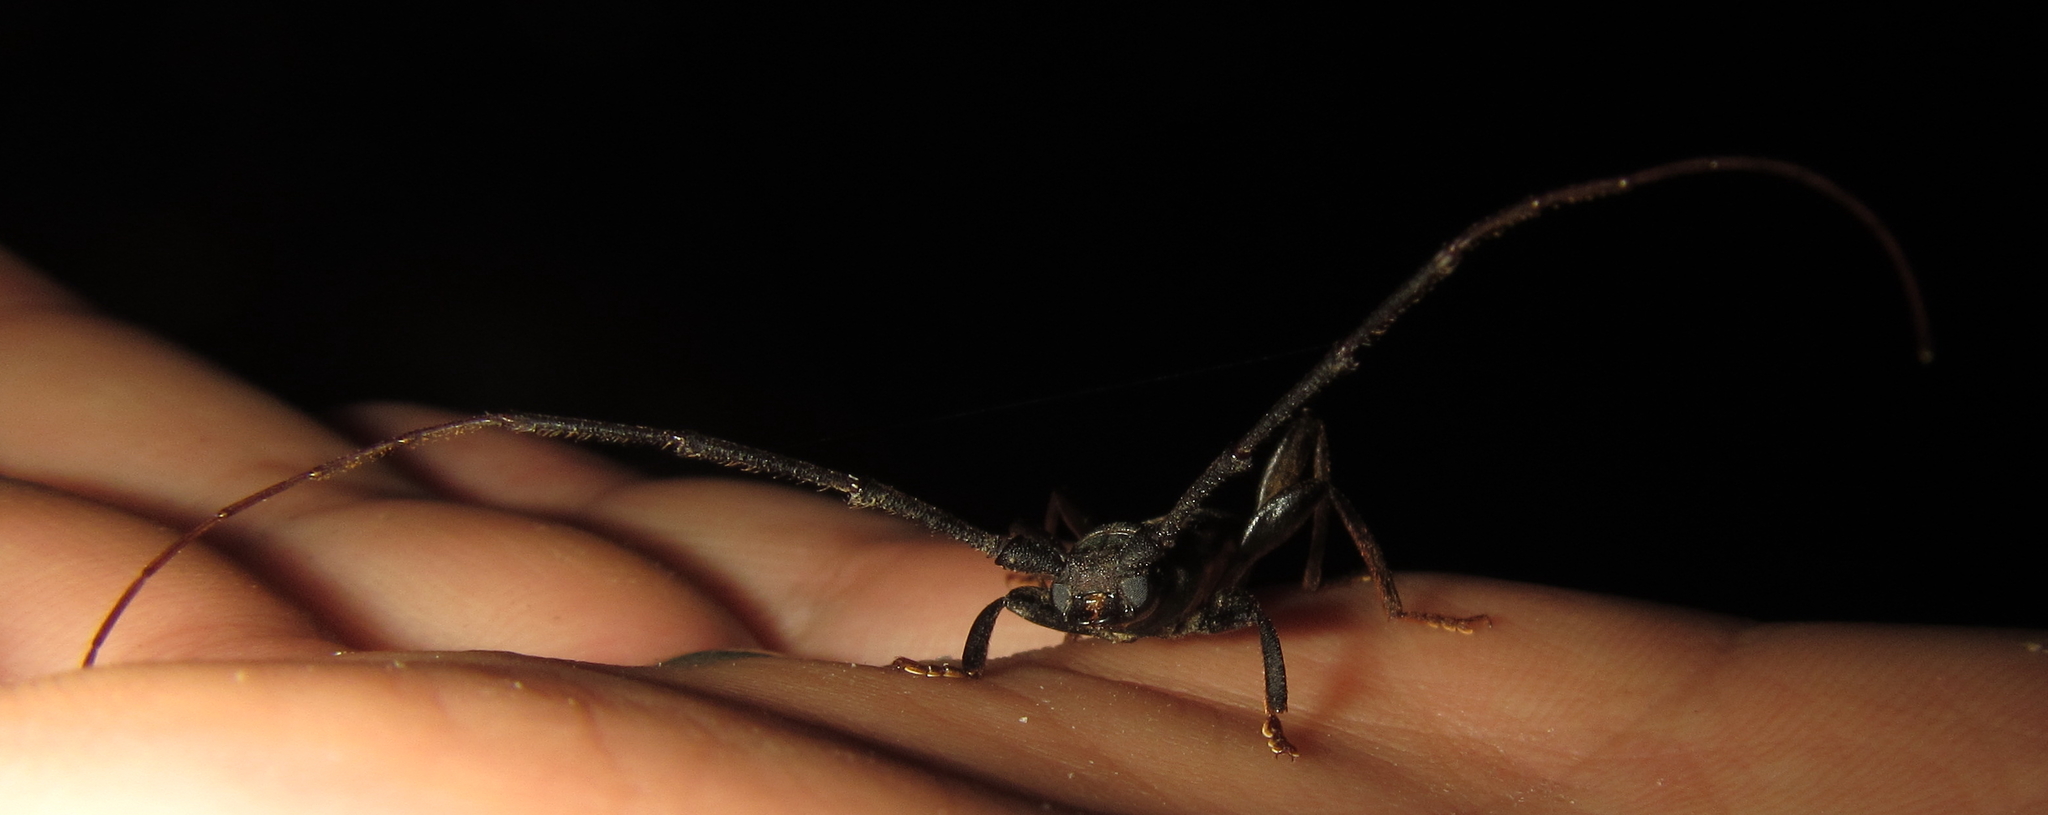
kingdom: Animalia
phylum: Arthropoda
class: Insecta
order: Coleoptera
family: Cerambycidae
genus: Xystrocera
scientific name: Xystrocera dispar
